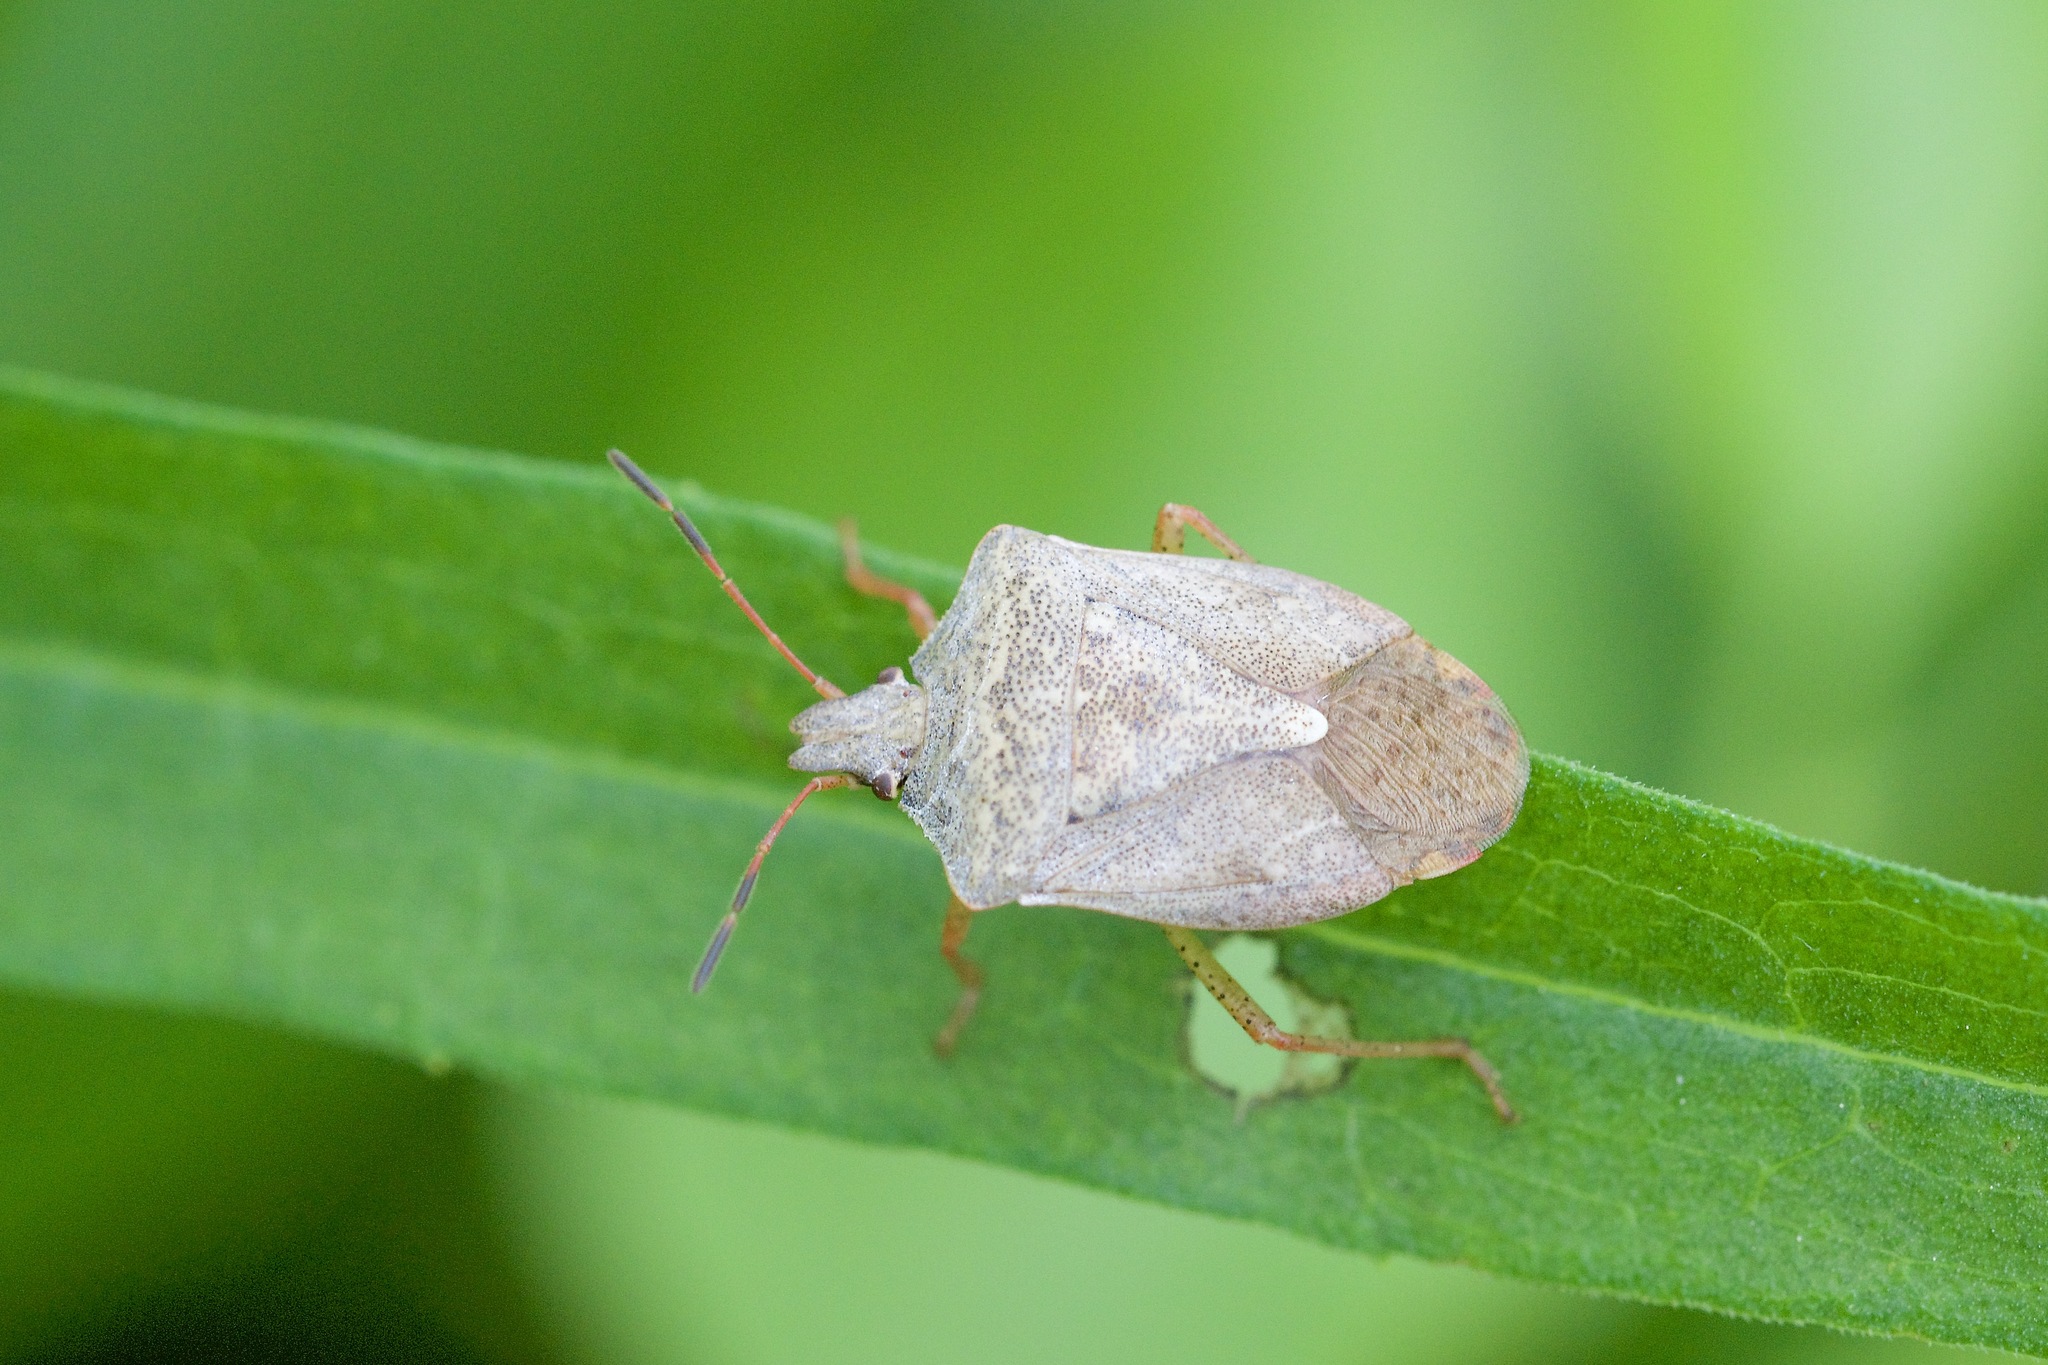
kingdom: Animalia
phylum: Arthropoda
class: Insecta
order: Hemiptera
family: Pentatomidae
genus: Euschistus
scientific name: Euschistus servus
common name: Brown stink bug
